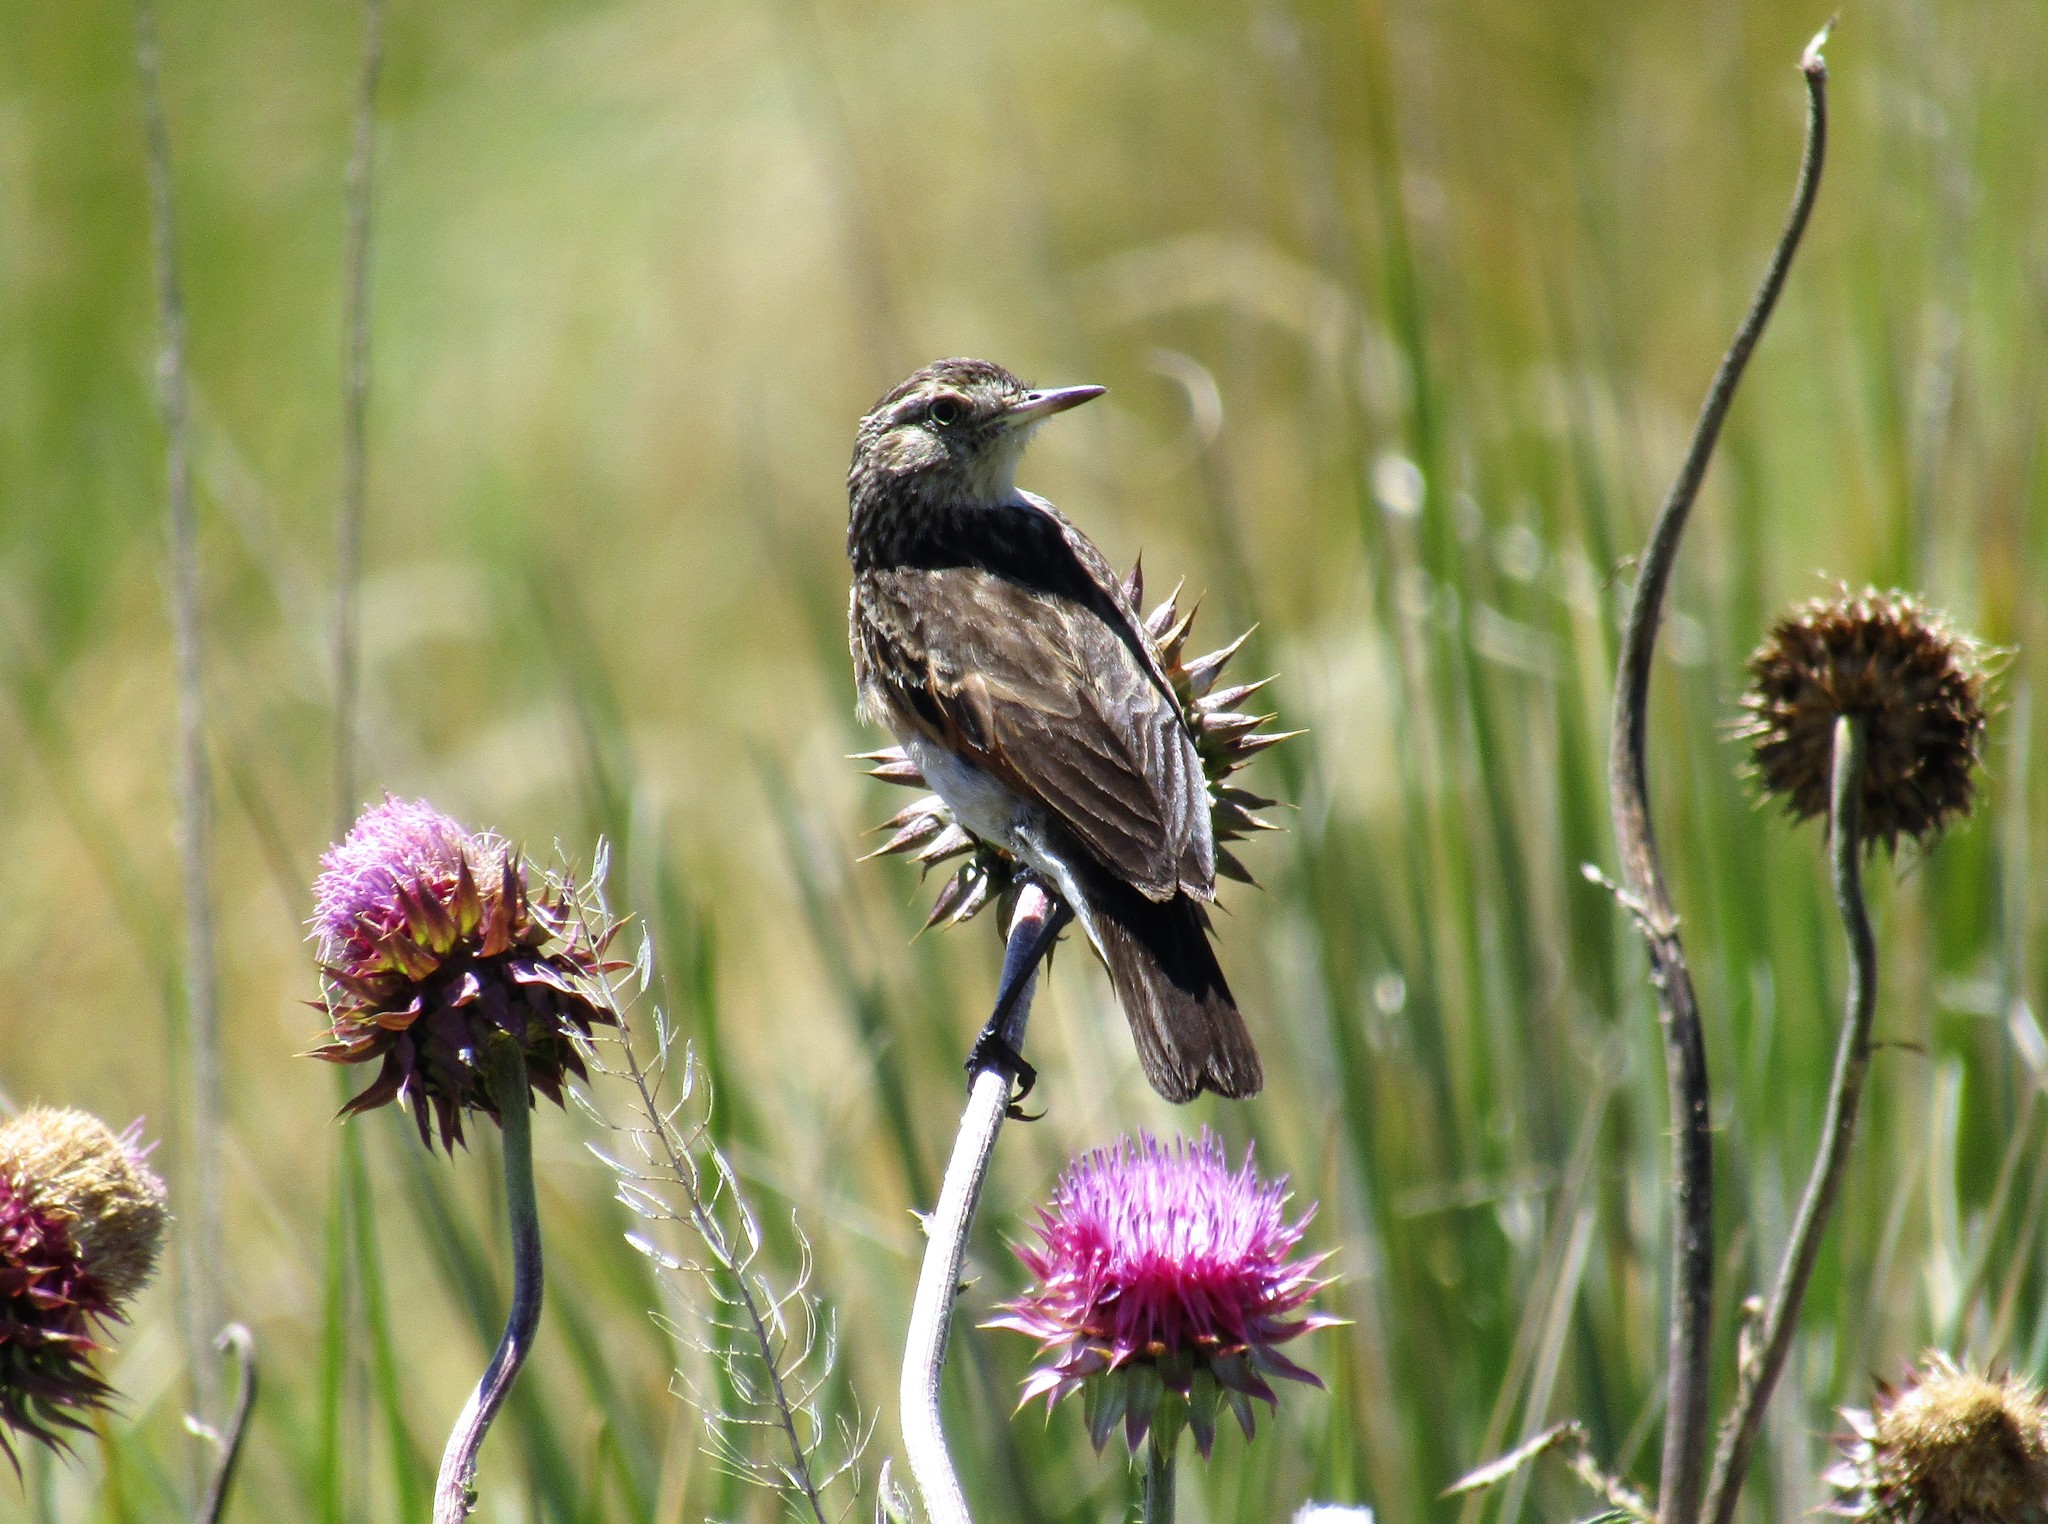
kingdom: Animalia
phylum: Chordata
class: Aves
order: Passeriformes
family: Tyrannidae
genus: Hymenops
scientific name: Hymenops perspicillatus
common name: Spectacled tyrant
